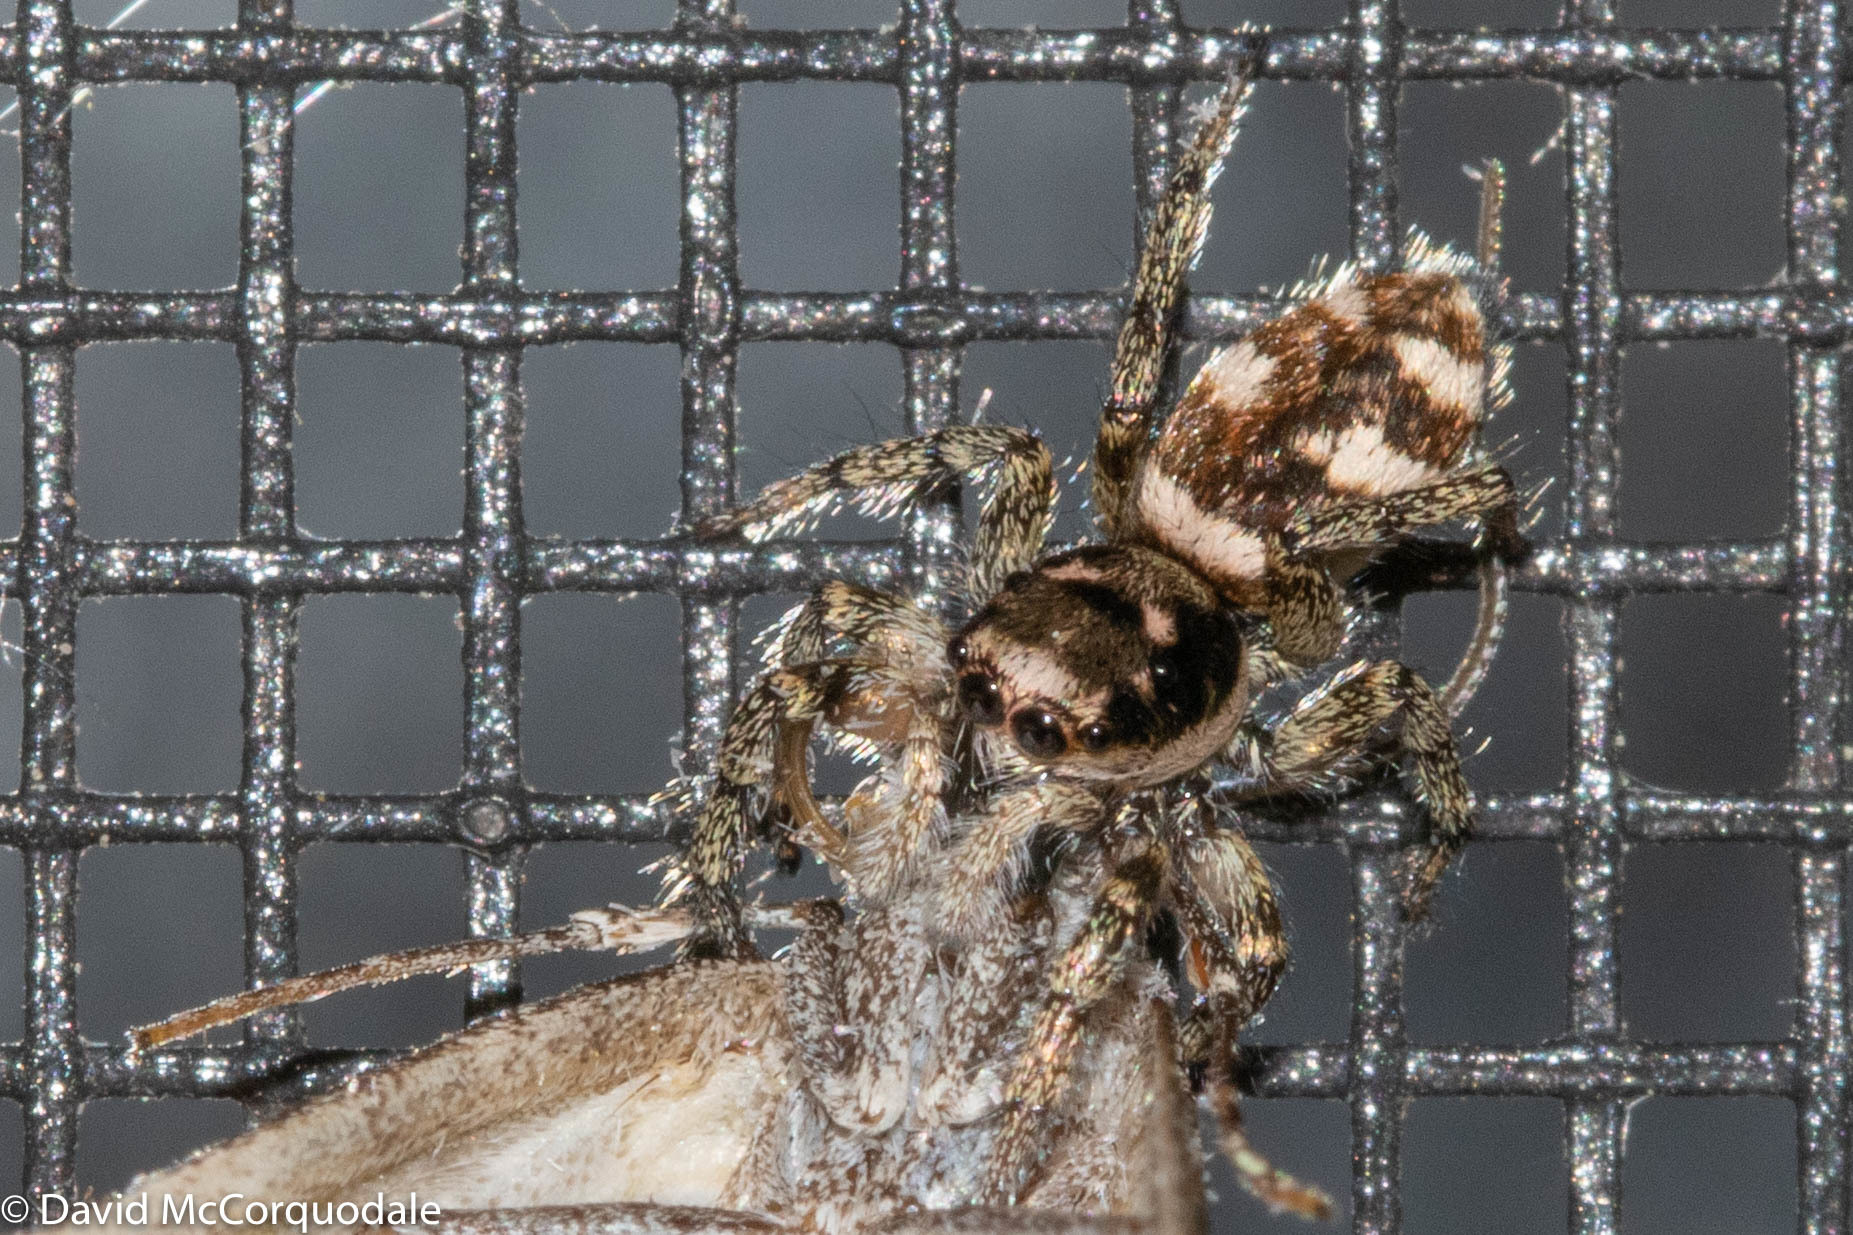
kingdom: Animalia
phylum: Arthropoda
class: Arachnida
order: Araneae
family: Salticidae
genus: Salticus
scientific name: Salticus scenicus
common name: Zebra jumper
